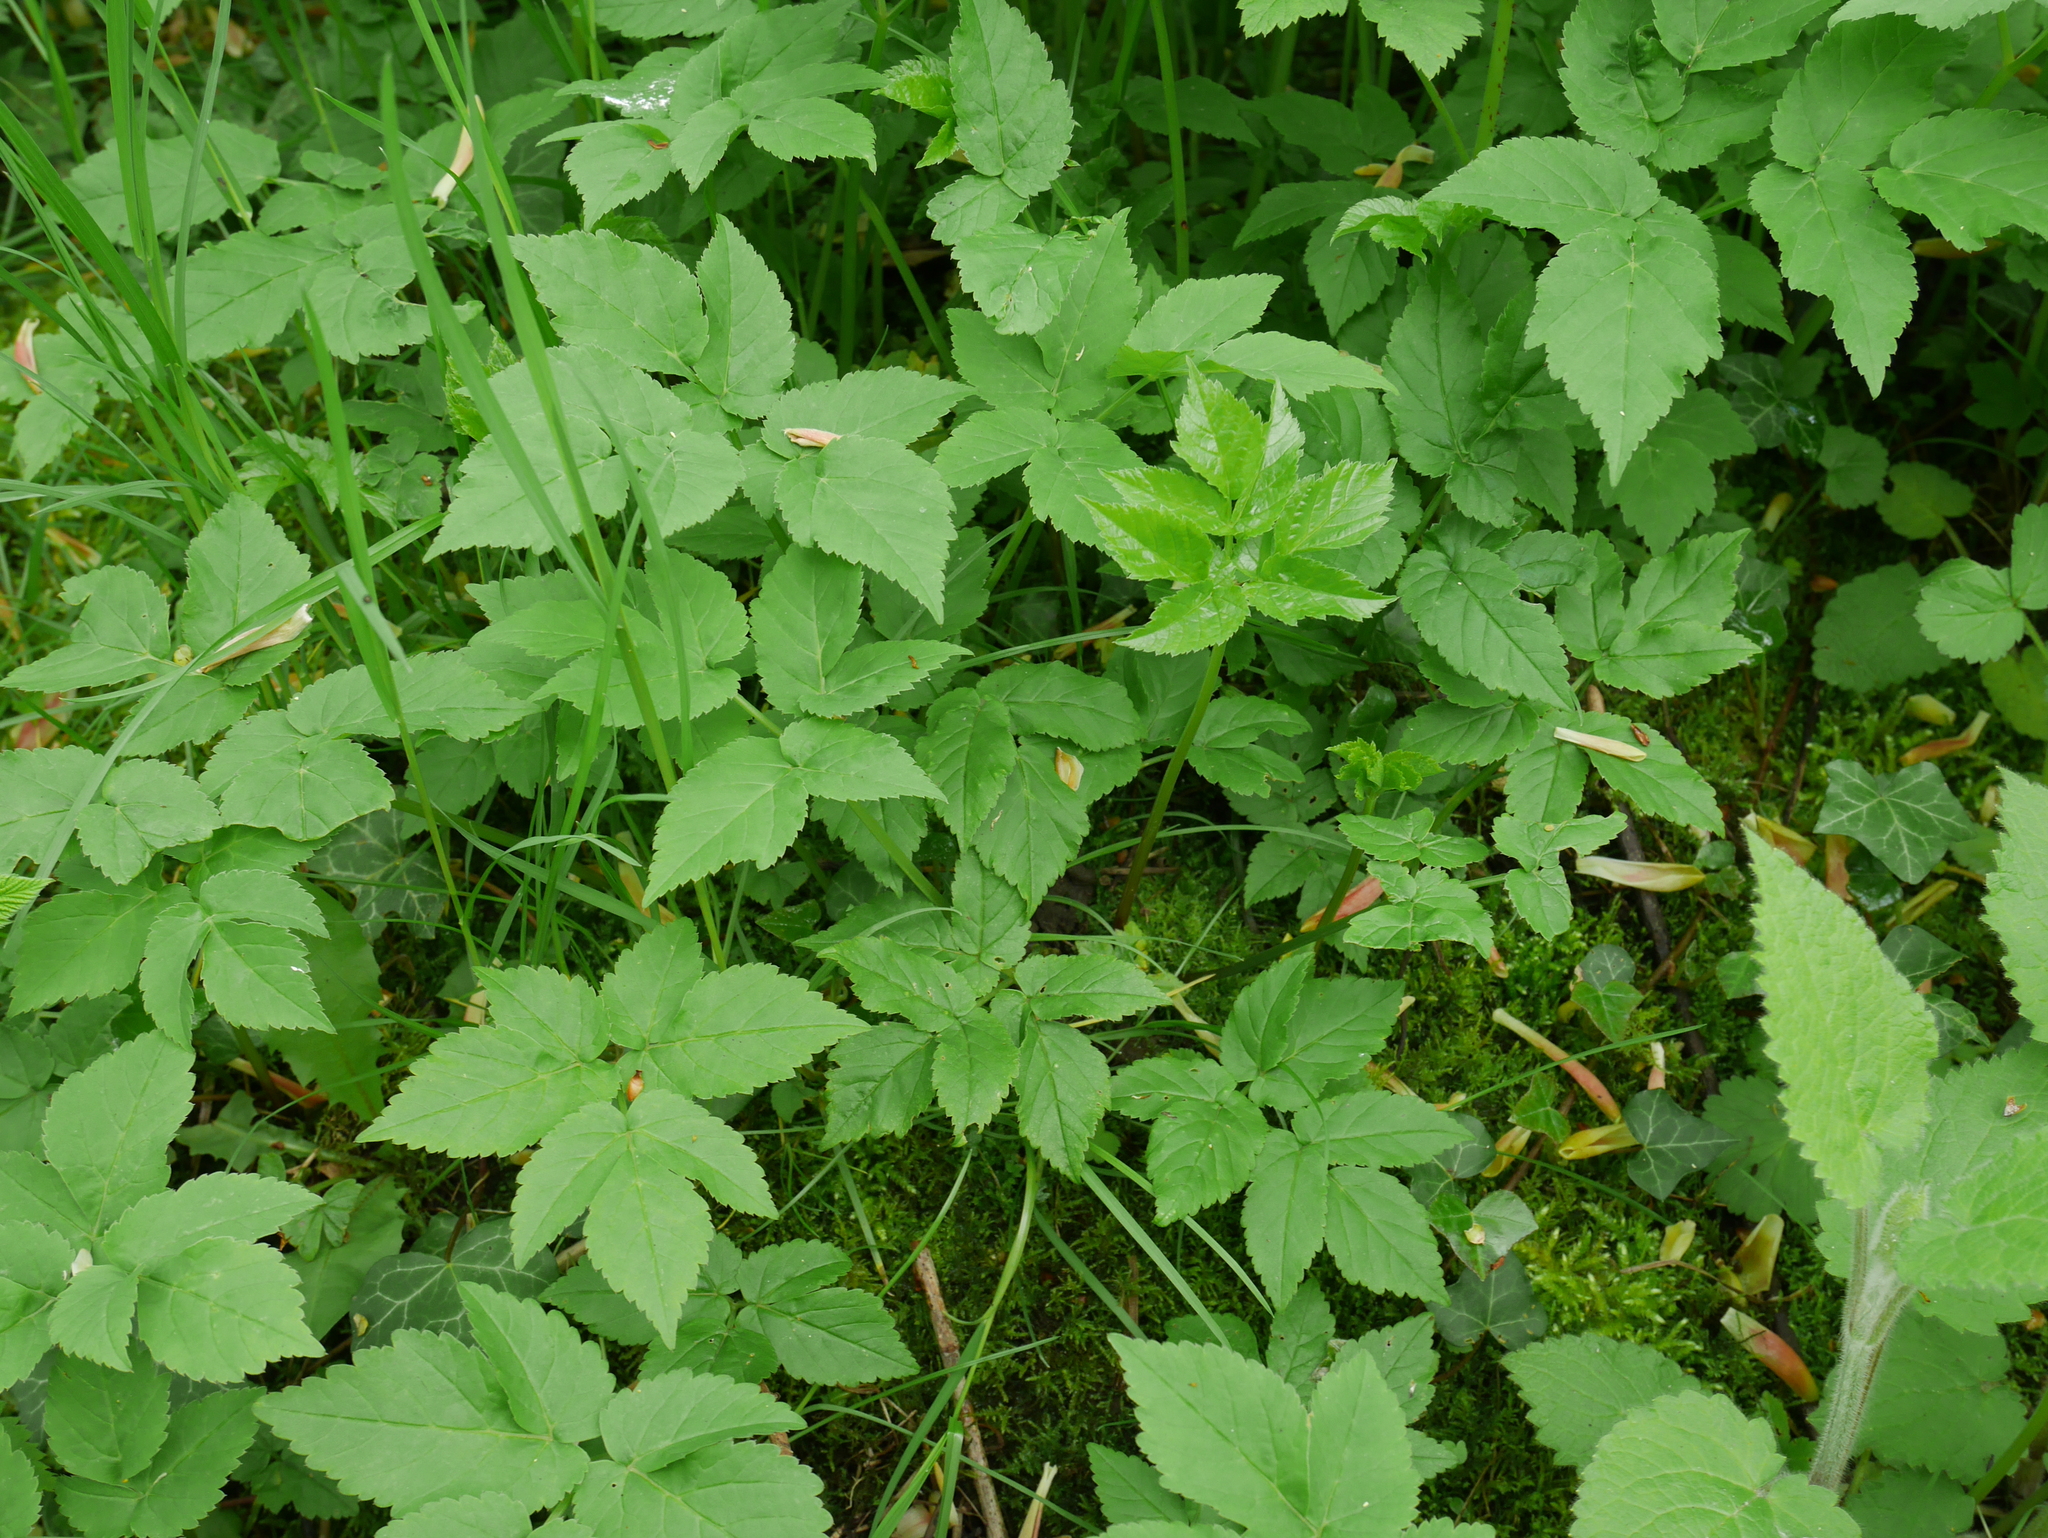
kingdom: Plantae
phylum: Tracheophyta
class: Magnoliopsida
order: Apiales
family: Apiaceae
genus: Aegopodium
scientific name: Aegopodium podagraria
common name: Ground-elder
